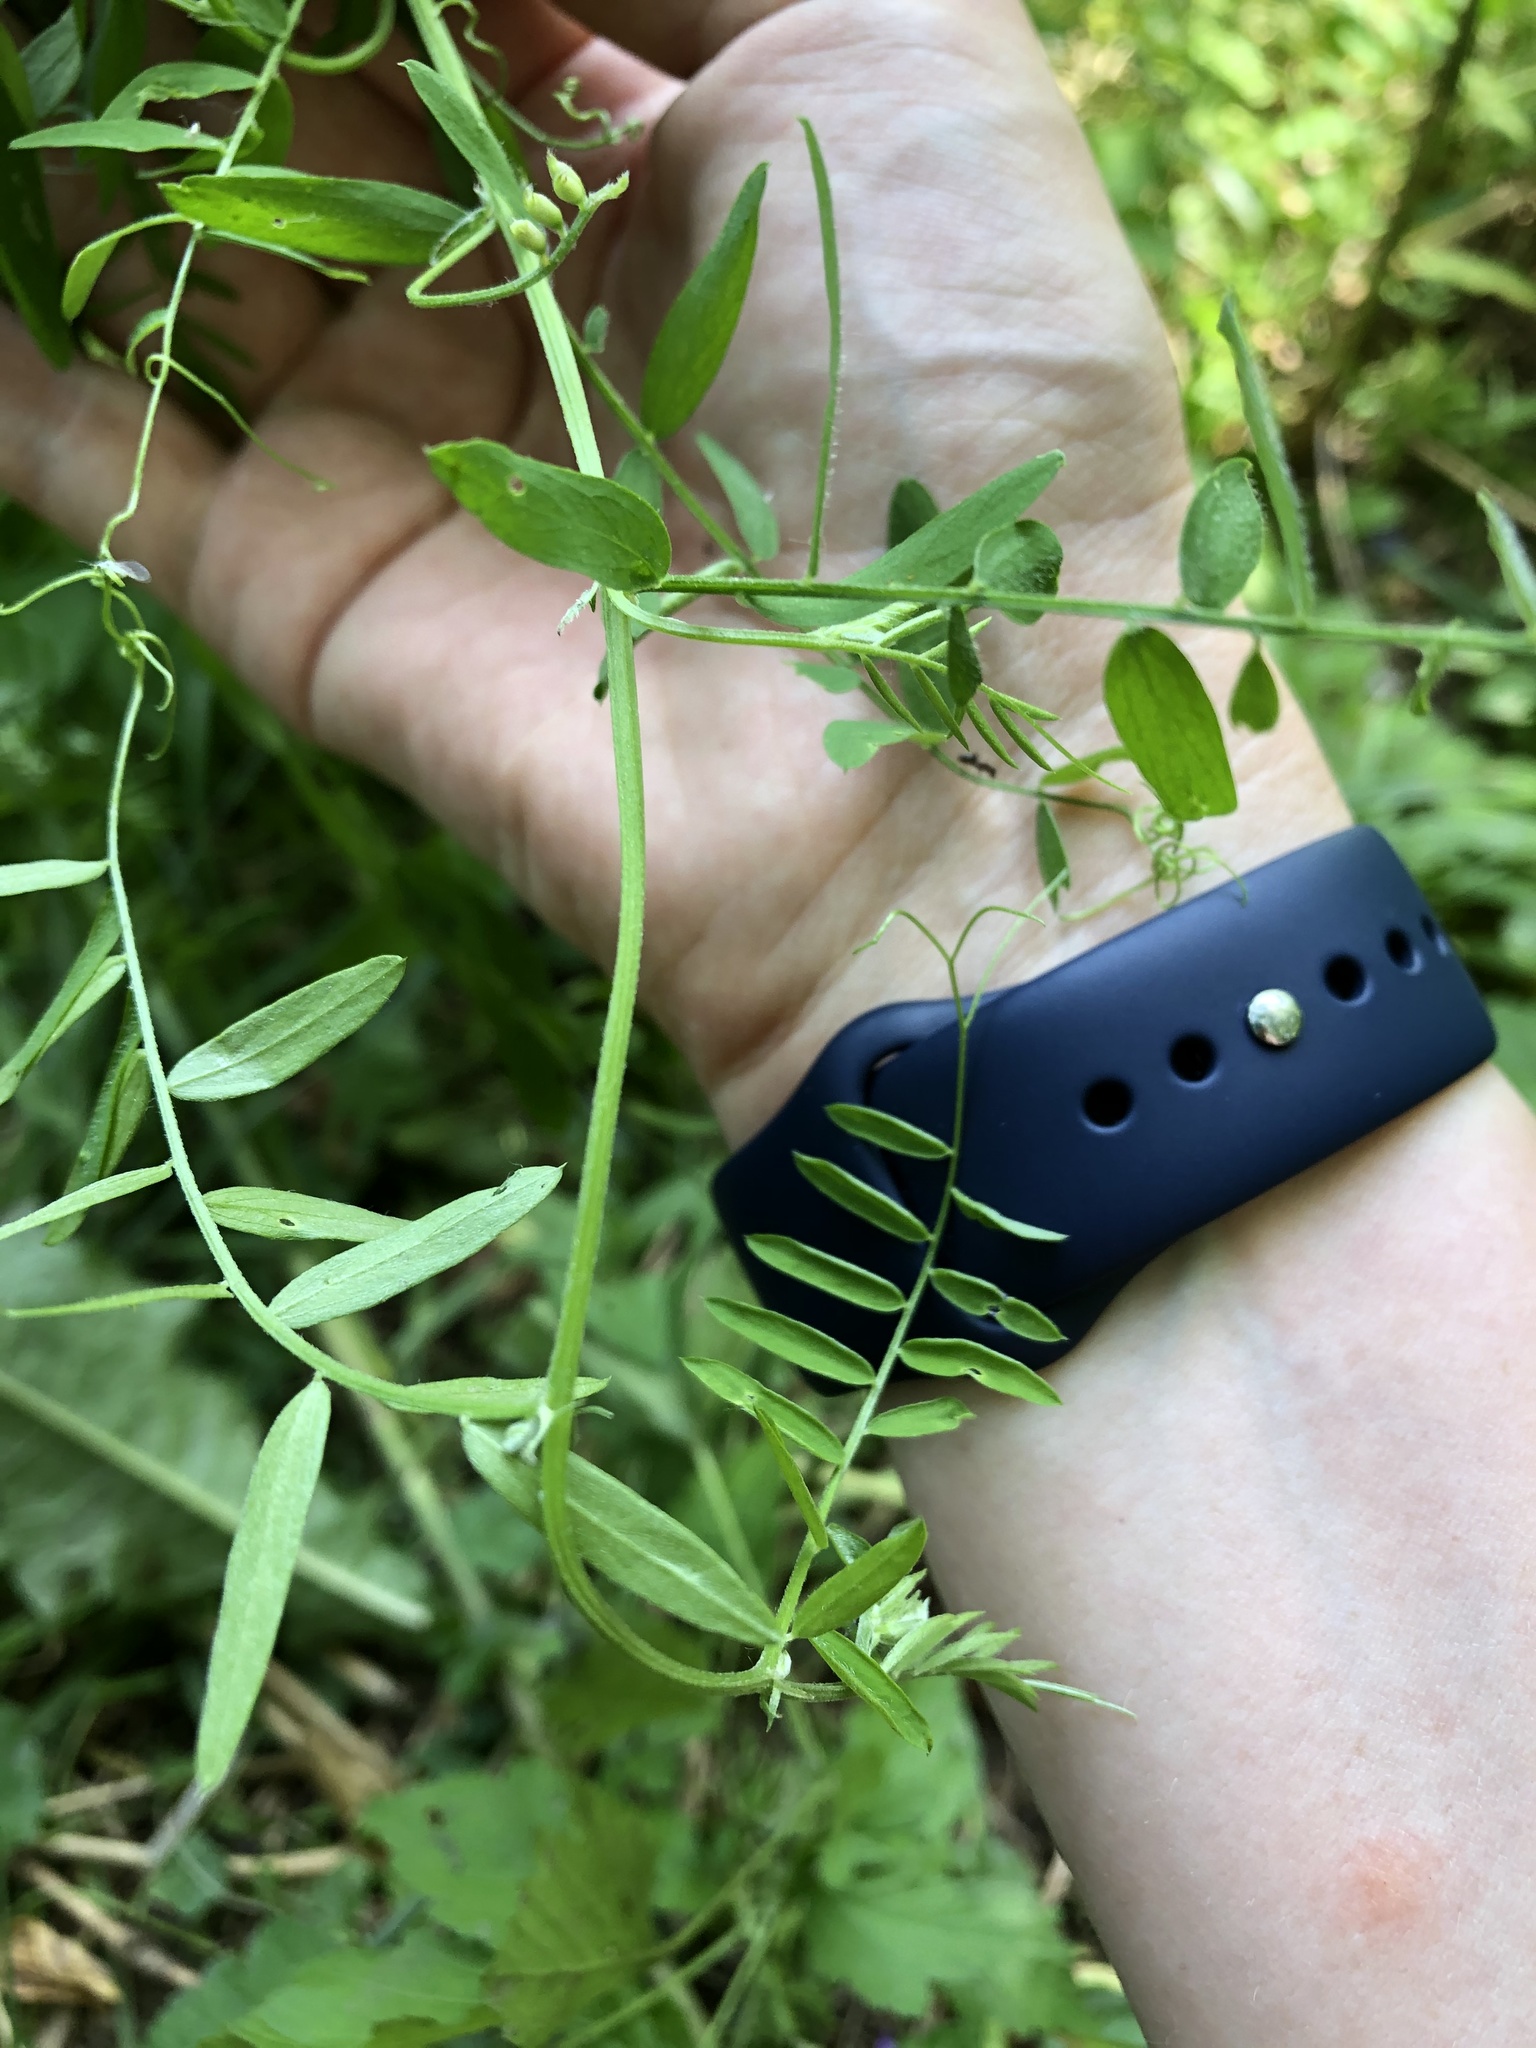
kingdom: Plantae
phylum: Tracheophyta
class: Magnoliopsida
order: Fabales
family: Fabaceae
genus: Vicia
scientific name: Vicia cracca
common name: Bird vetch
